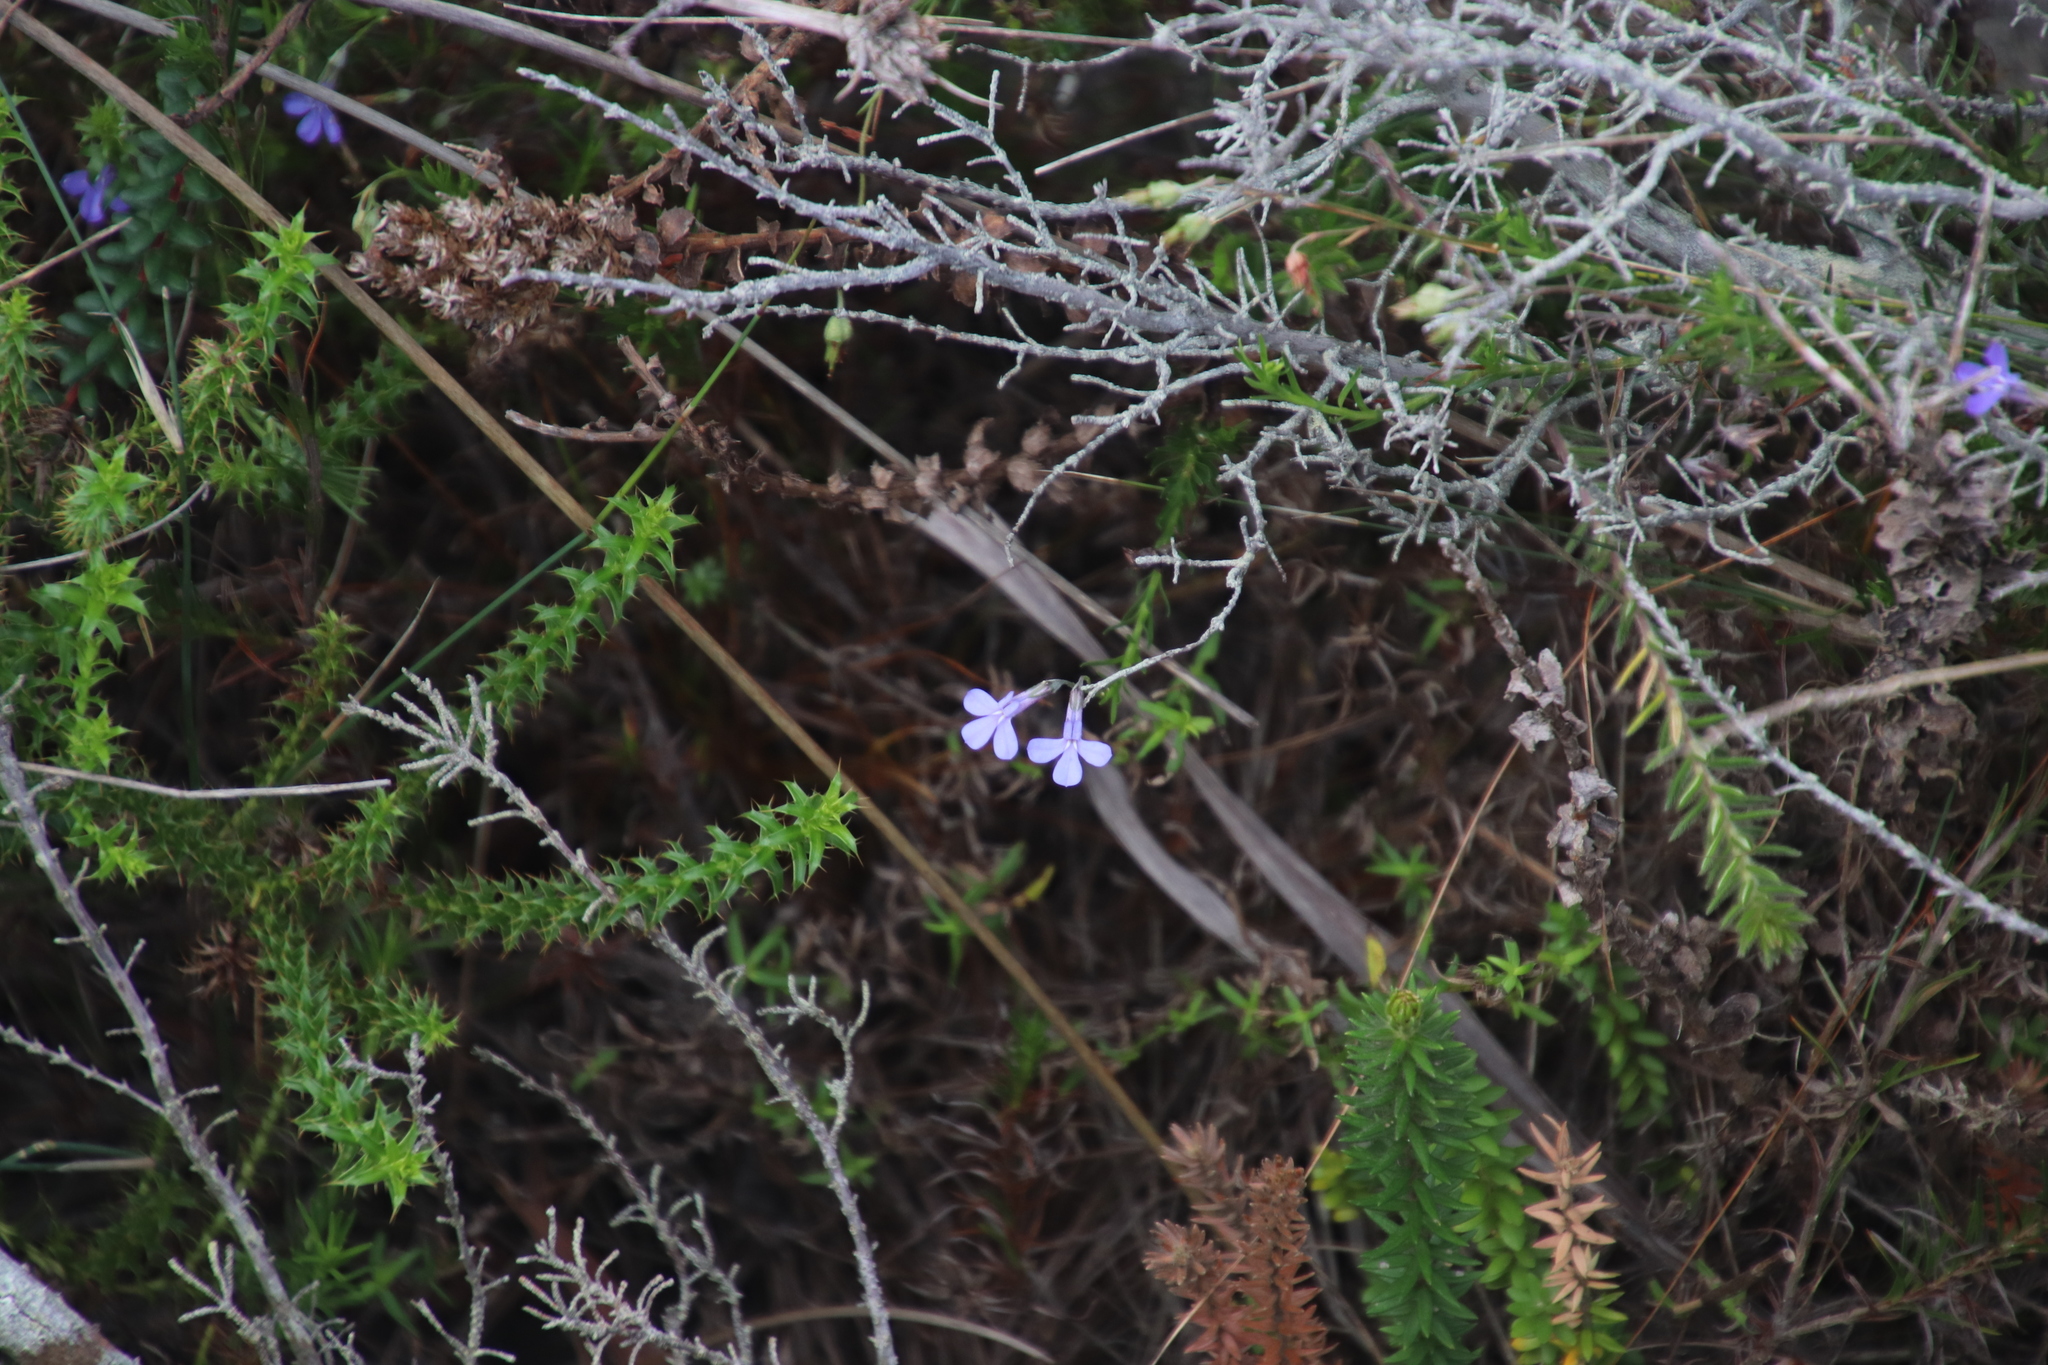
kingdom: Plantae
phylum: Tracheophyta
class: Magnoliopsida
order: Asterales
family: Campanulaceae
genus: Lobelia
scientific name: Lobelia pinifolia
